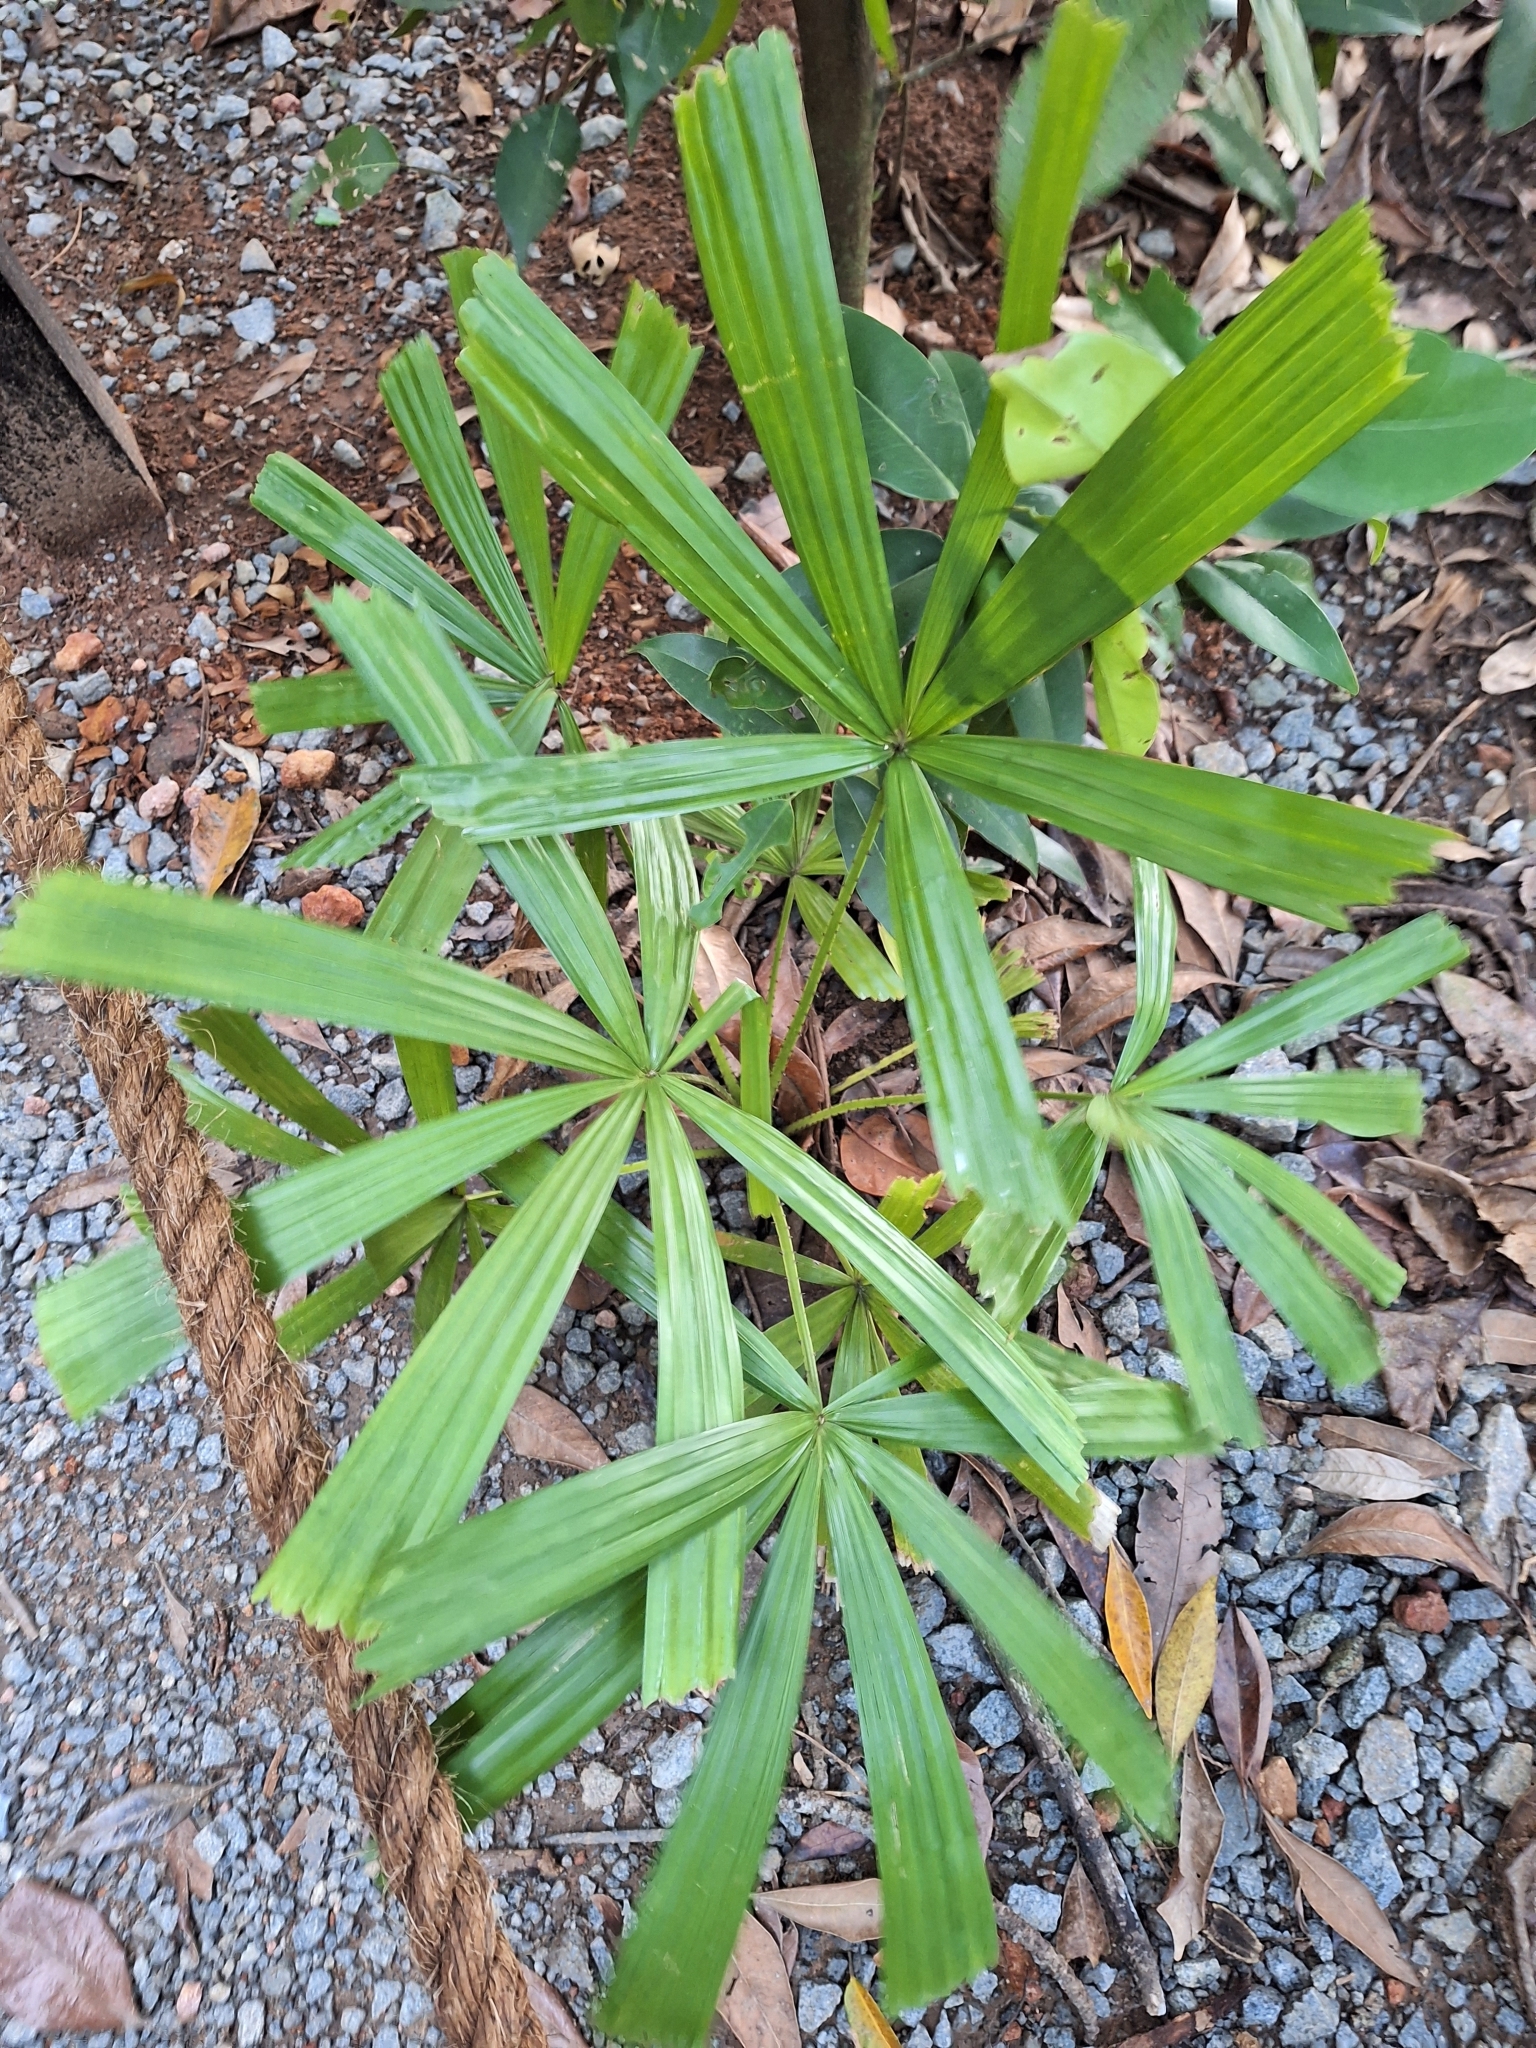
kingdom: Plantae
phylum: Tracheophyta
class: Liliopsida
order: Arecales
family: Arecaceae
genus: Licuala
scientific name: Licuala spinosa
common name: Mangrove fan palm
